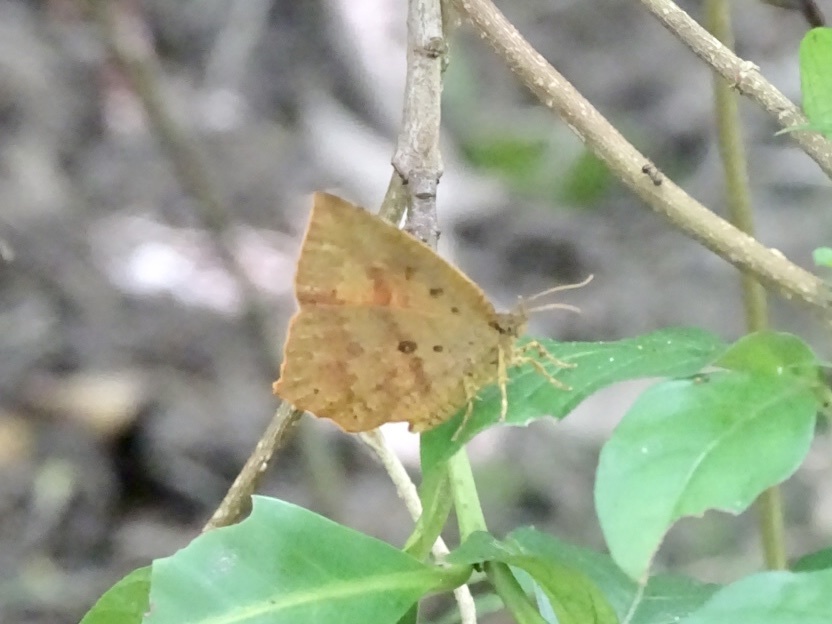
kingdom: Animalia
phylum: Arthropoda
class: Insecta
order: Lepidoptera
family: Callidulidae
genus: Tetragonus
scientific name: Tetragonus catamitus
